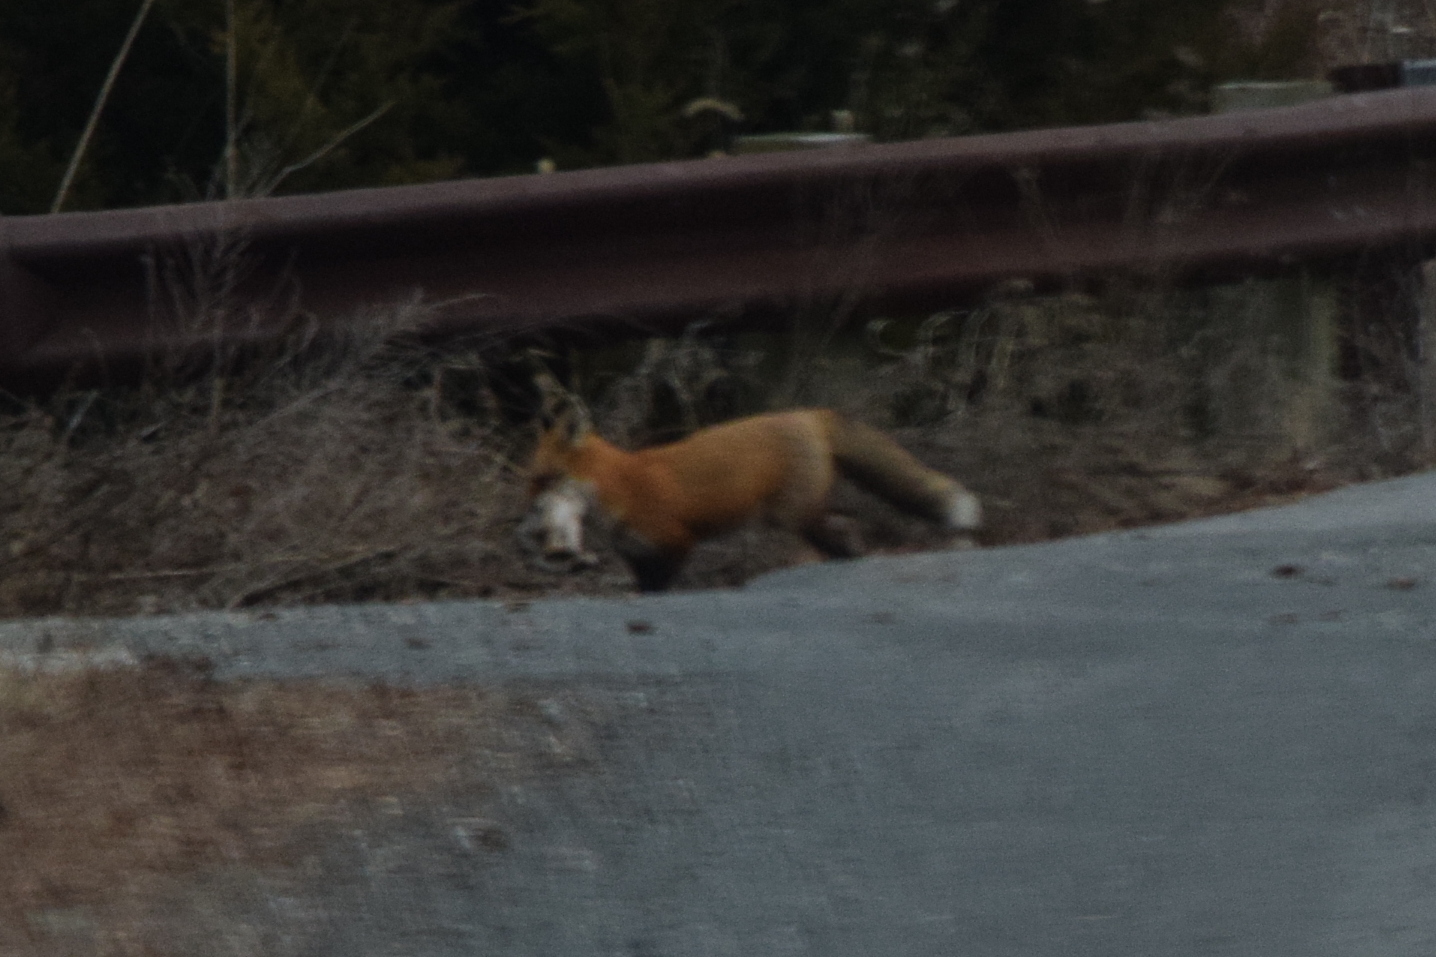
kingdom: Animalia
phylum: Chordata
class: Mammalia
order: Carnivora
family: Canidae
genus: Vulpes
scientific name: Vulpes vulpes
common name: Red fox
